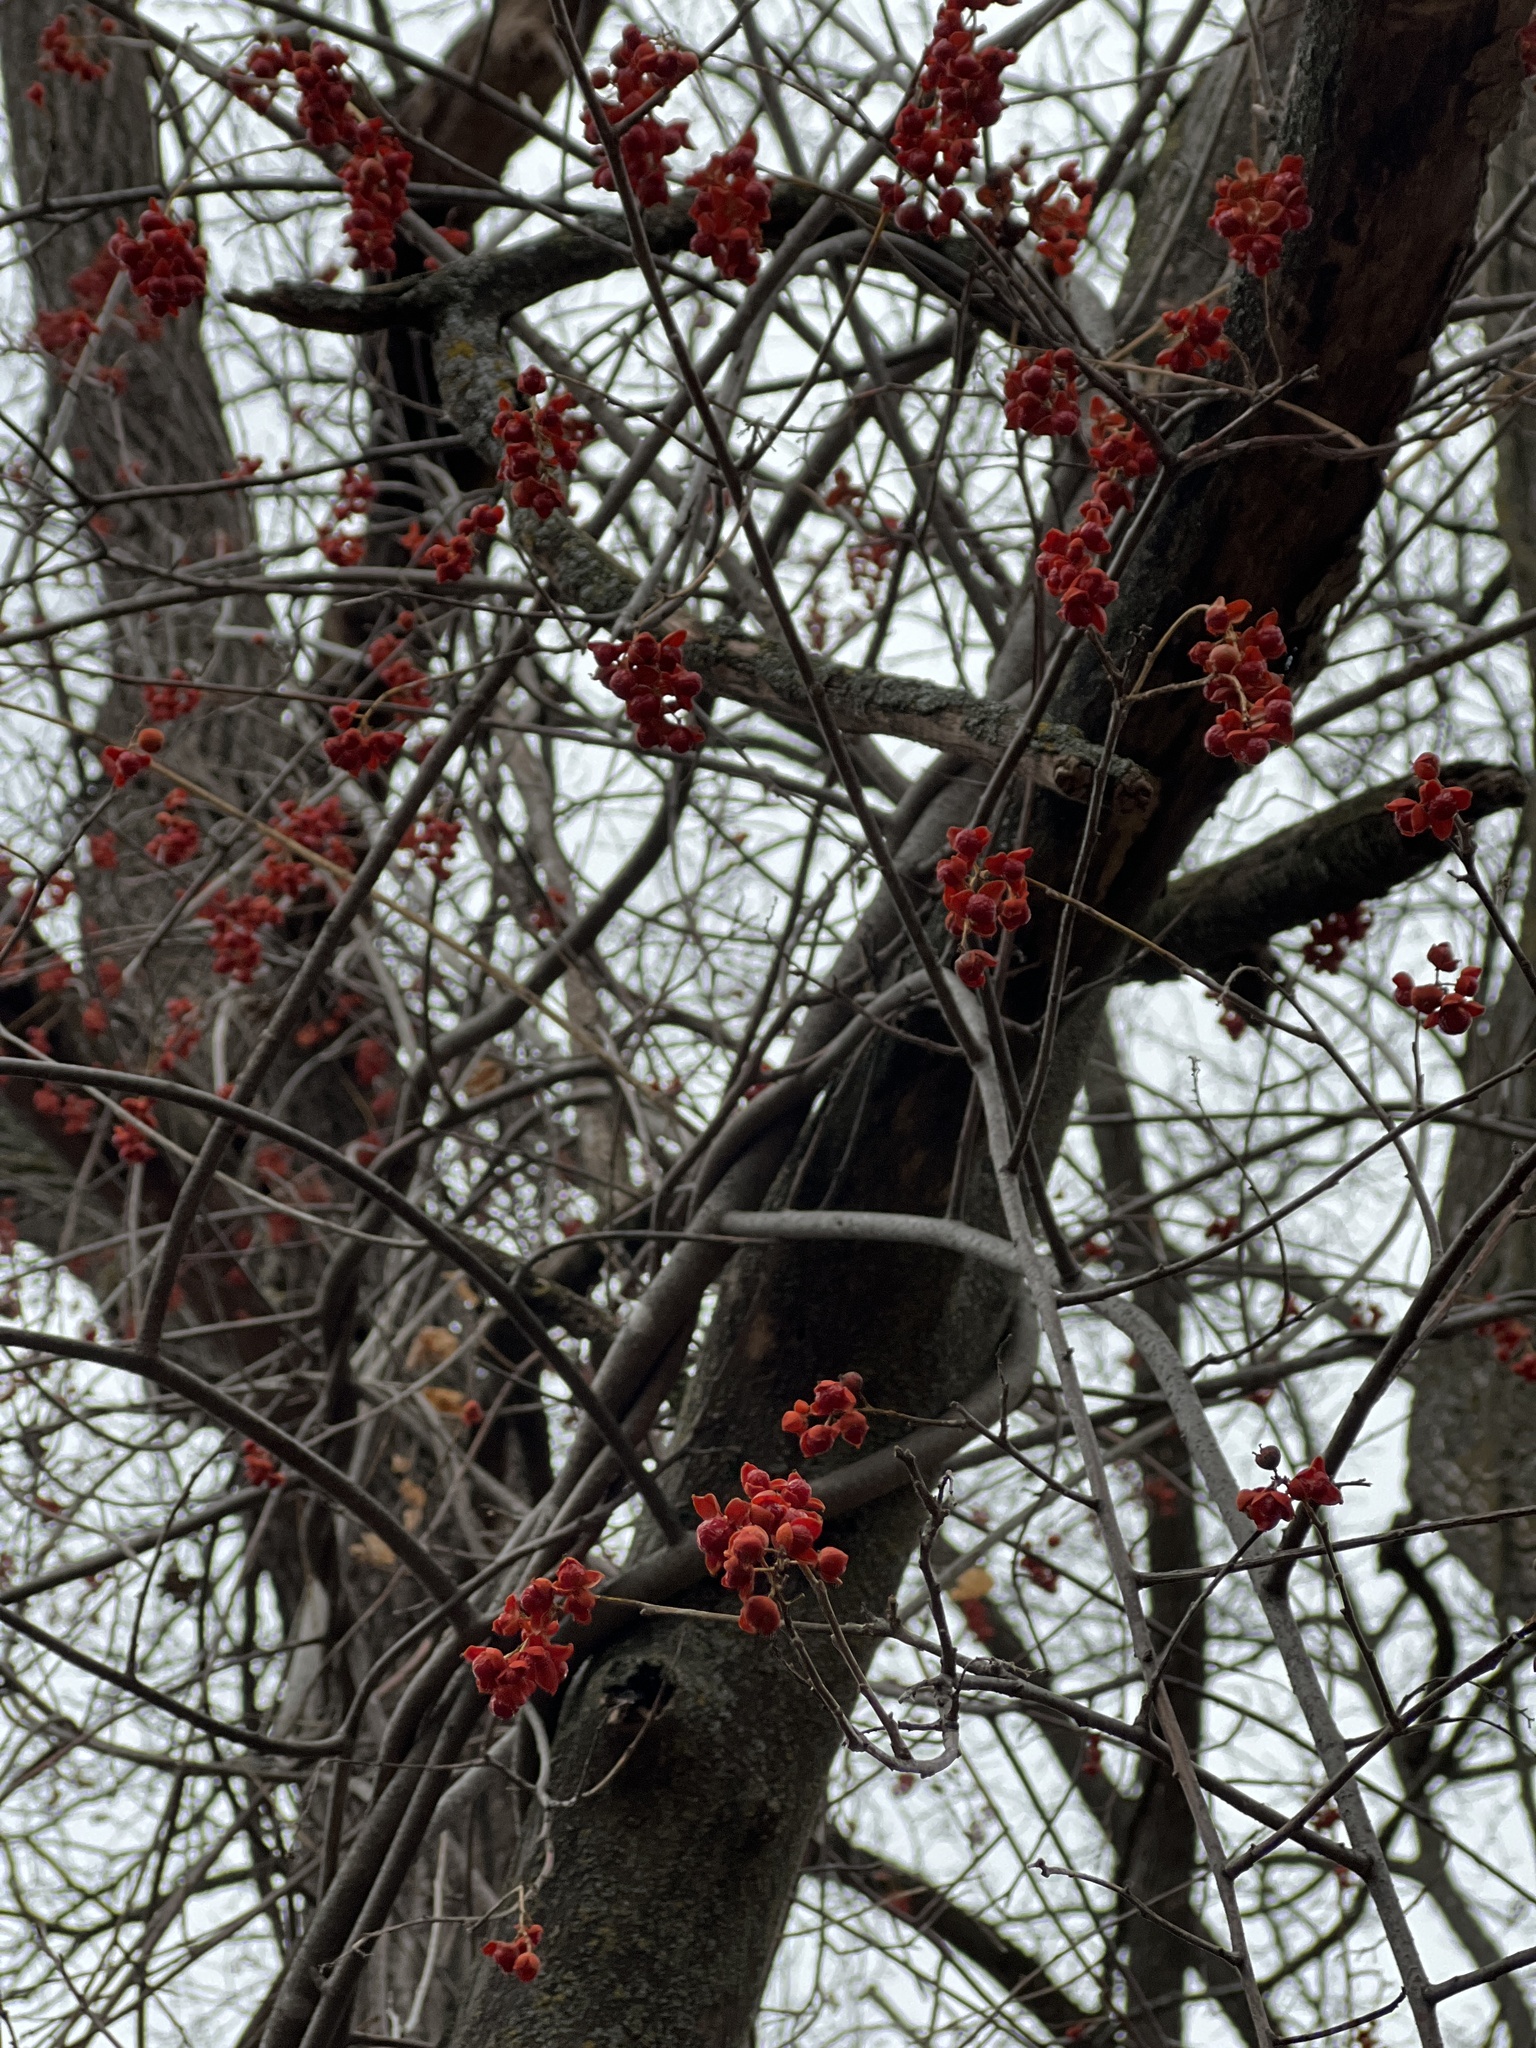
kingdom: Plantae
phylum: Tracheophyta
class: Magnoliopsida
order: Celastrales
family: Celastraceae
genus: Celastrus
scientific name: Celastrus scandens
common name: American bittersweet
